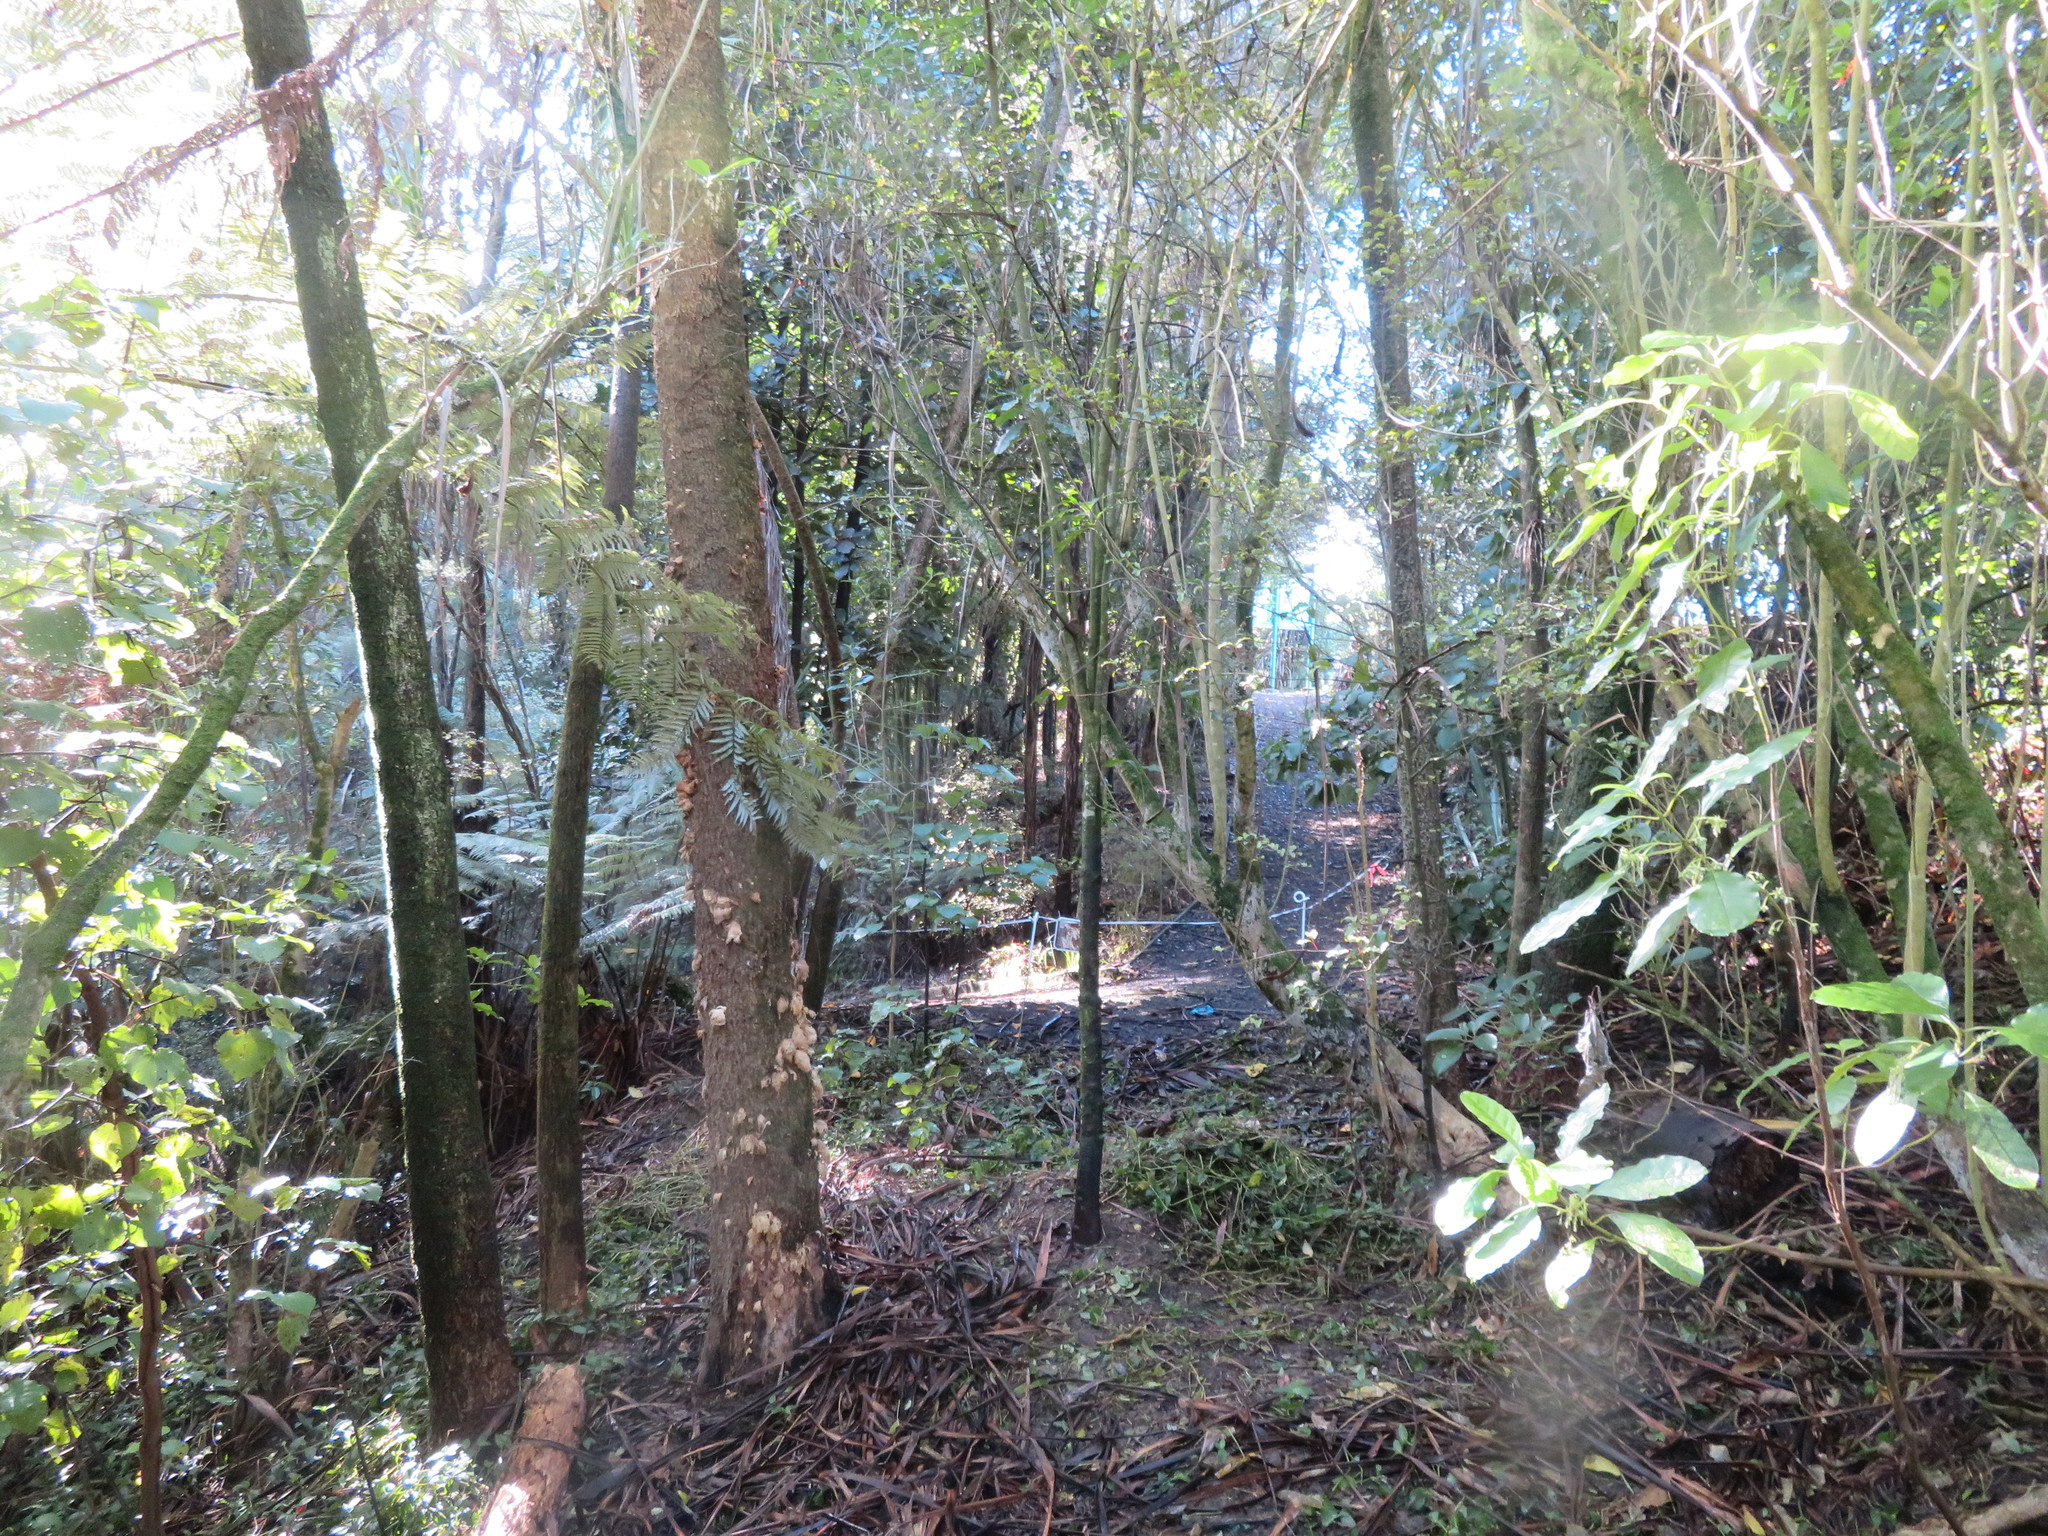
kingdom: Plantae
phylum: Tracheophyta
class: Magnoliopsida
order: Gentianales
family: Rubiaceae
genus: Coprosma
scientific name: Coprosma autumnalis
